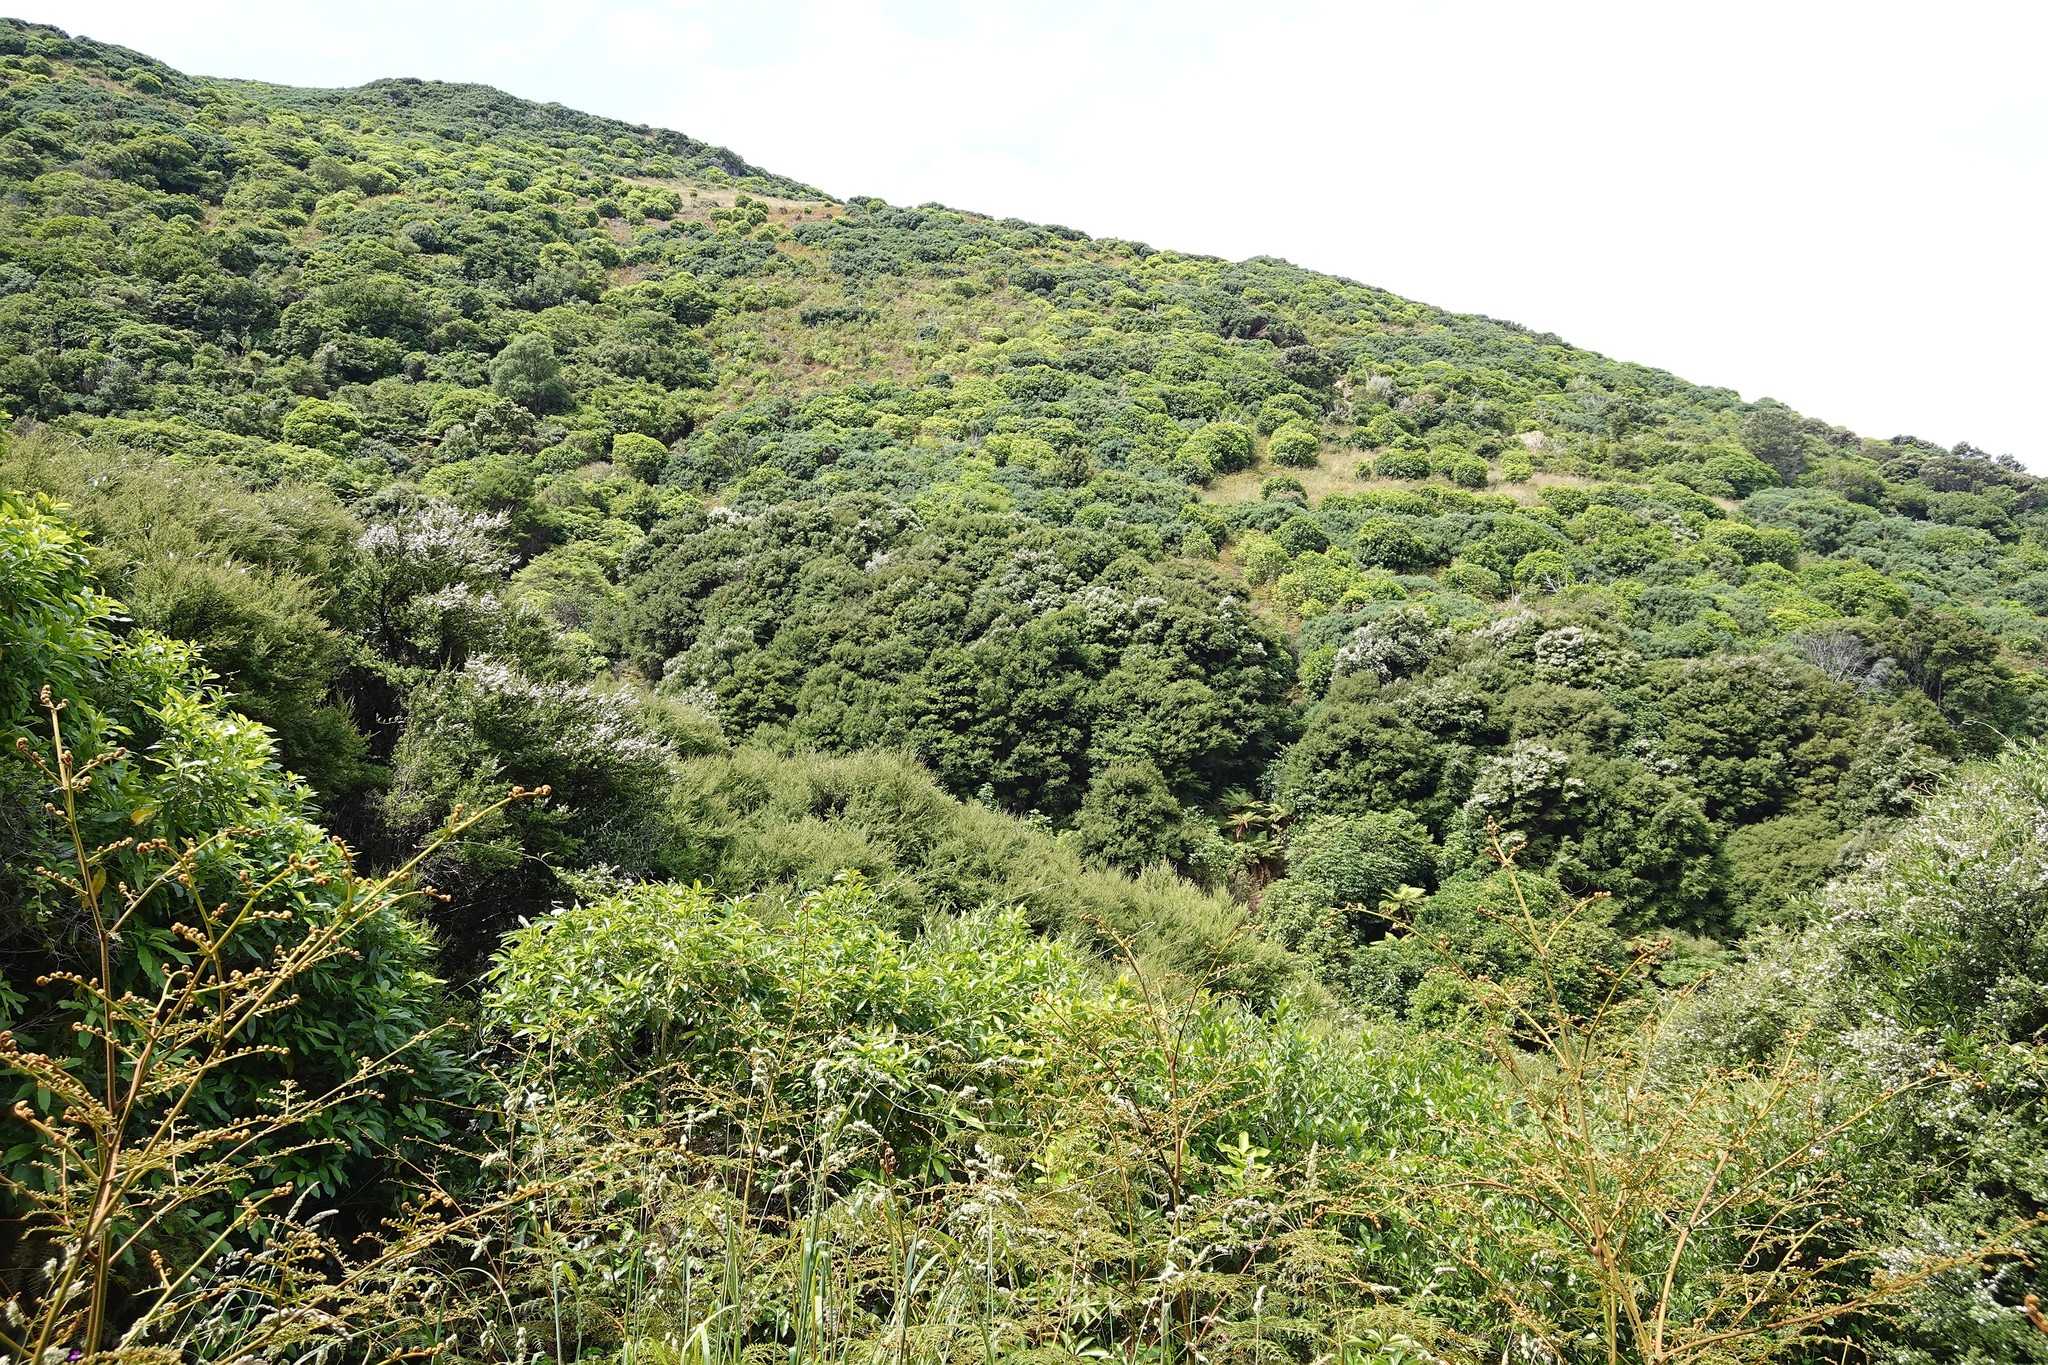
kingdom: Plantae
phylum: Tracheophyta
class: Polypodiopsida
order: Polypodiales
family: Dennstaedtiaceae
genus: Pteridium
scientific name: Pteridium esculentum
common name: Bracken fern
